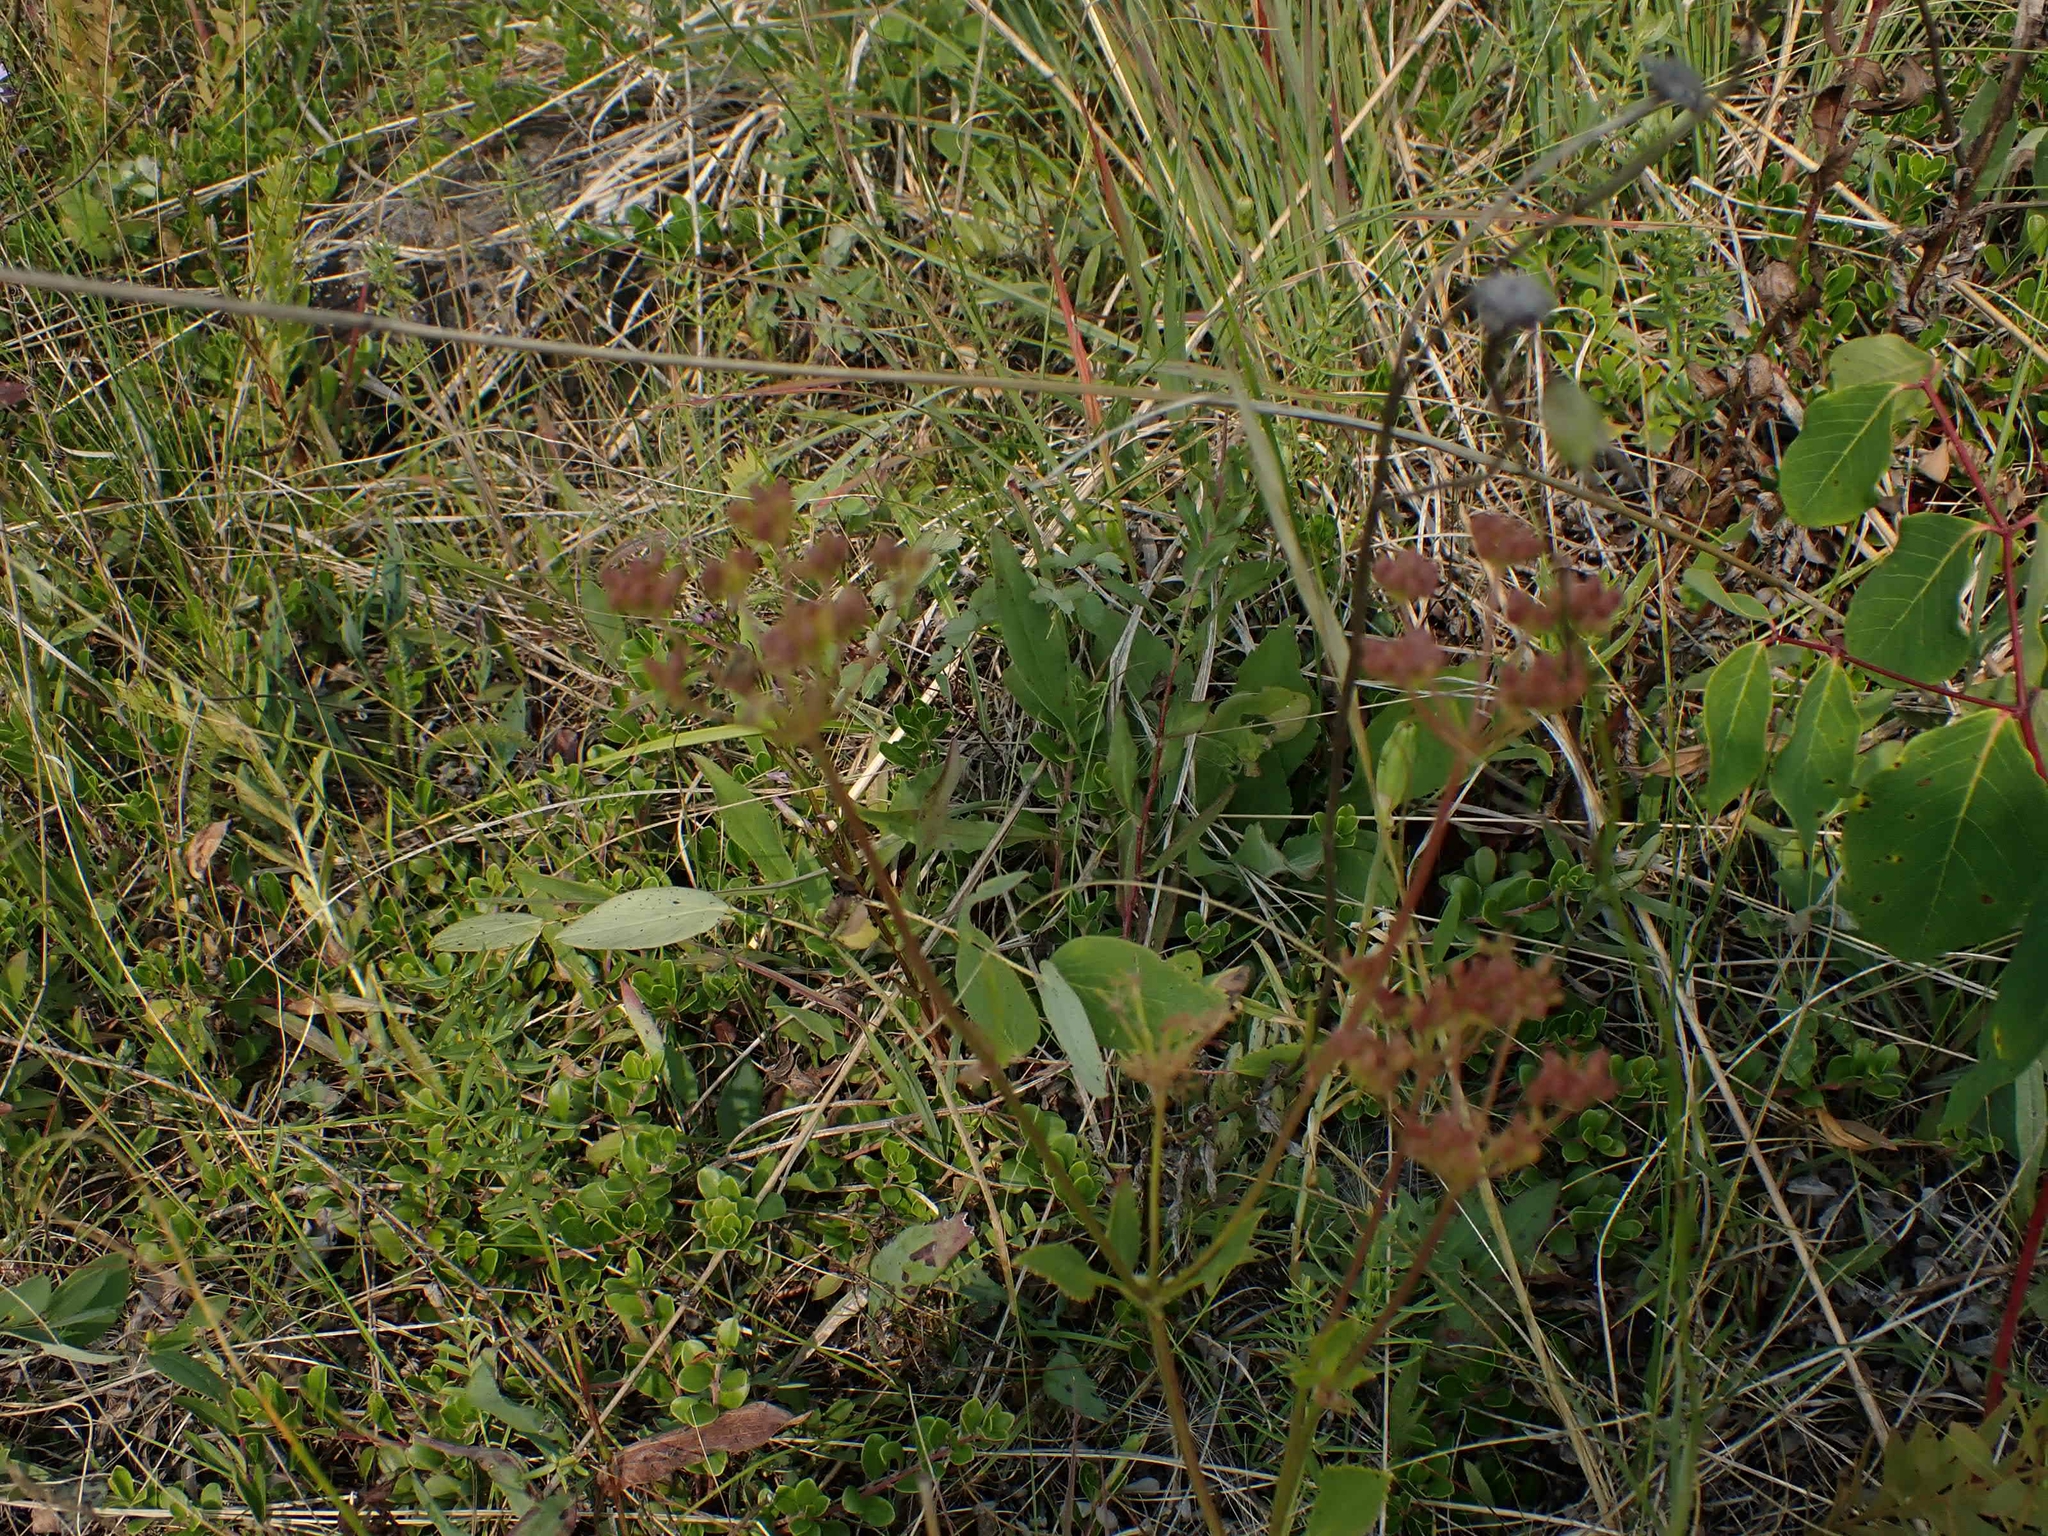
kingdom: Plantae
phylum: Tracheophyta
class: Magnoliopsida
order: Apiales
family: Apiaceae
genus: Zizia
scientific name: Zizia aptera
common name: Heart-leaved alexanders
